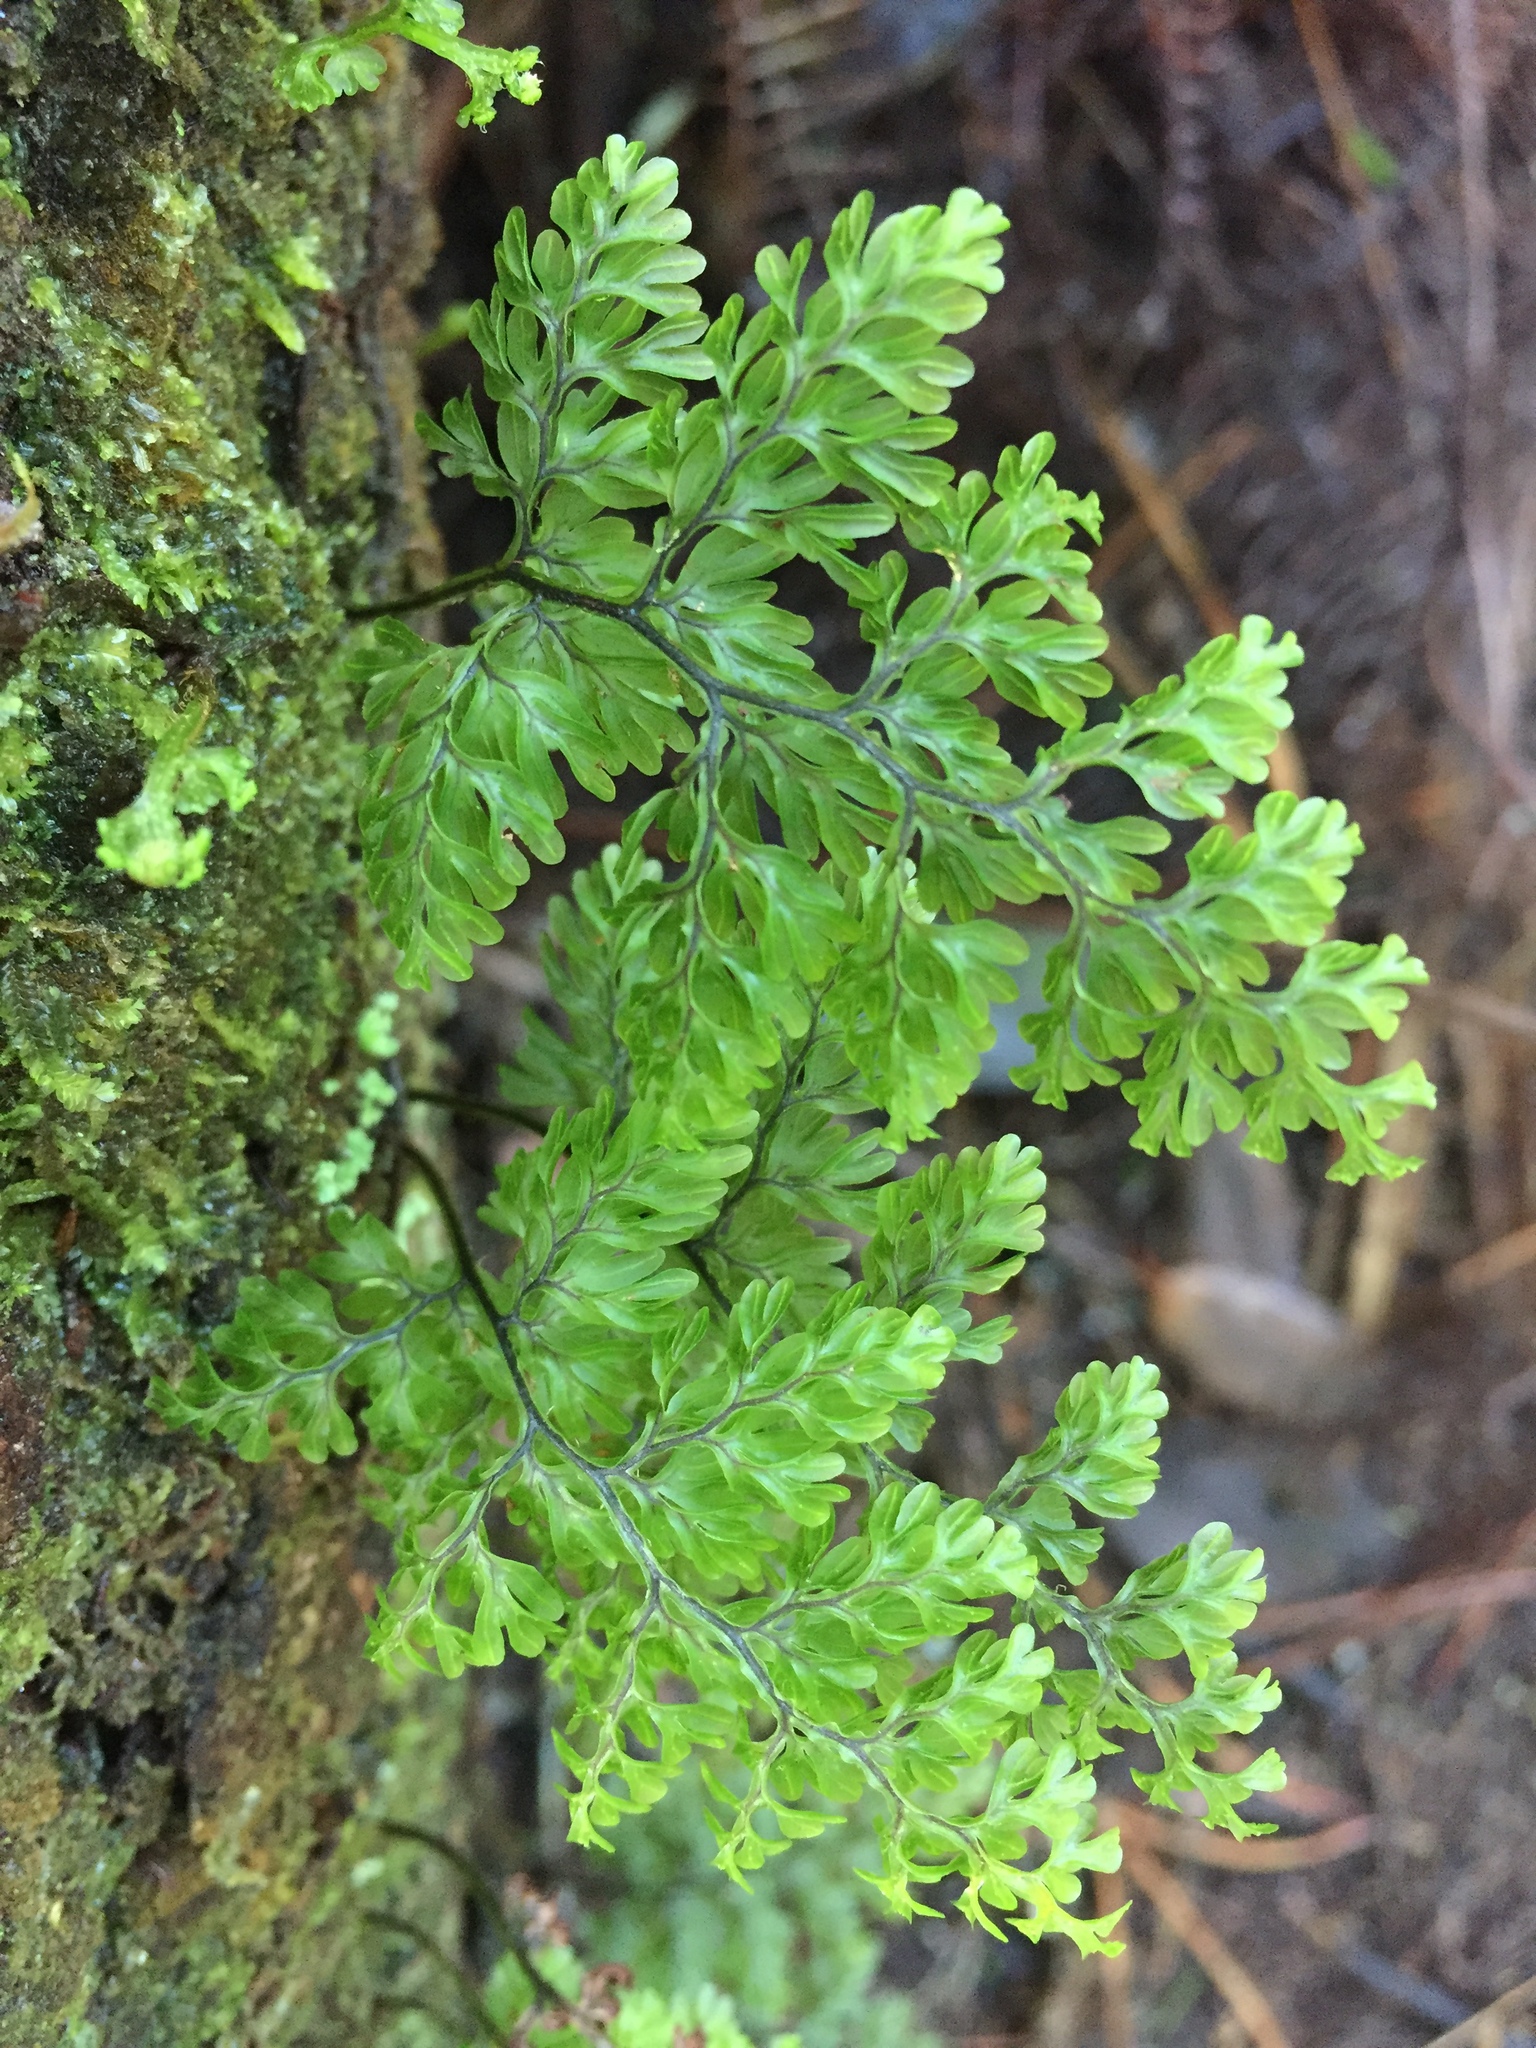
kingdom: Plantae
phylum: Tracheophyta
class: Polypodiopsida
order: Hymenophyllales
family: Hymenophyllaceae
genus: Hymenophyllum
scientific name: Hymenophyllum sanguinolentum
